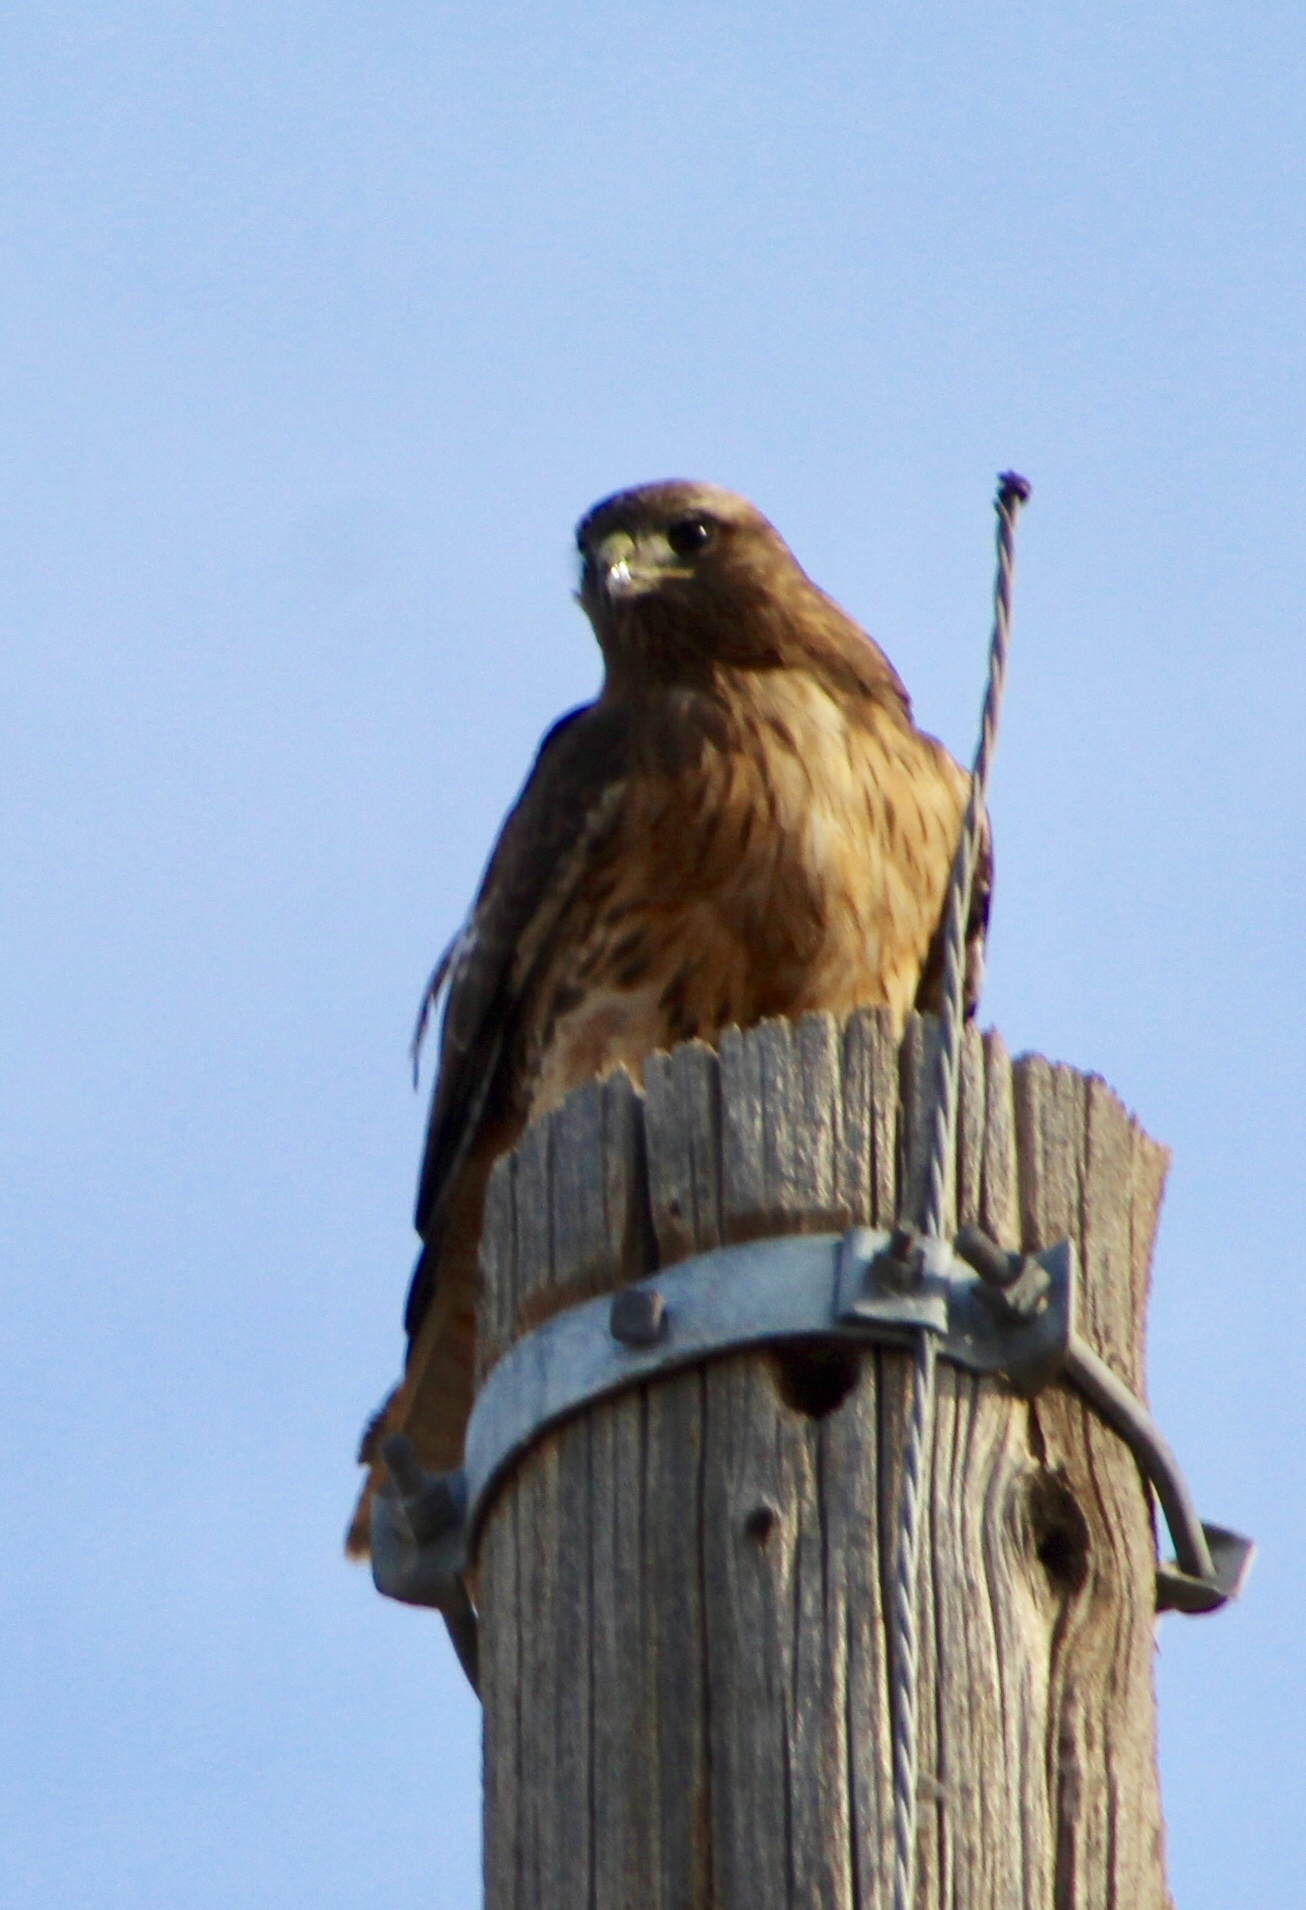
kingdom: Animalia
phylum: Chordata
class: Aves
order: Accipitriformes
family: Accipitridae
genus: Buteo
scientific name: Buteo jamaicensis
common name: Red-tailed hawk
